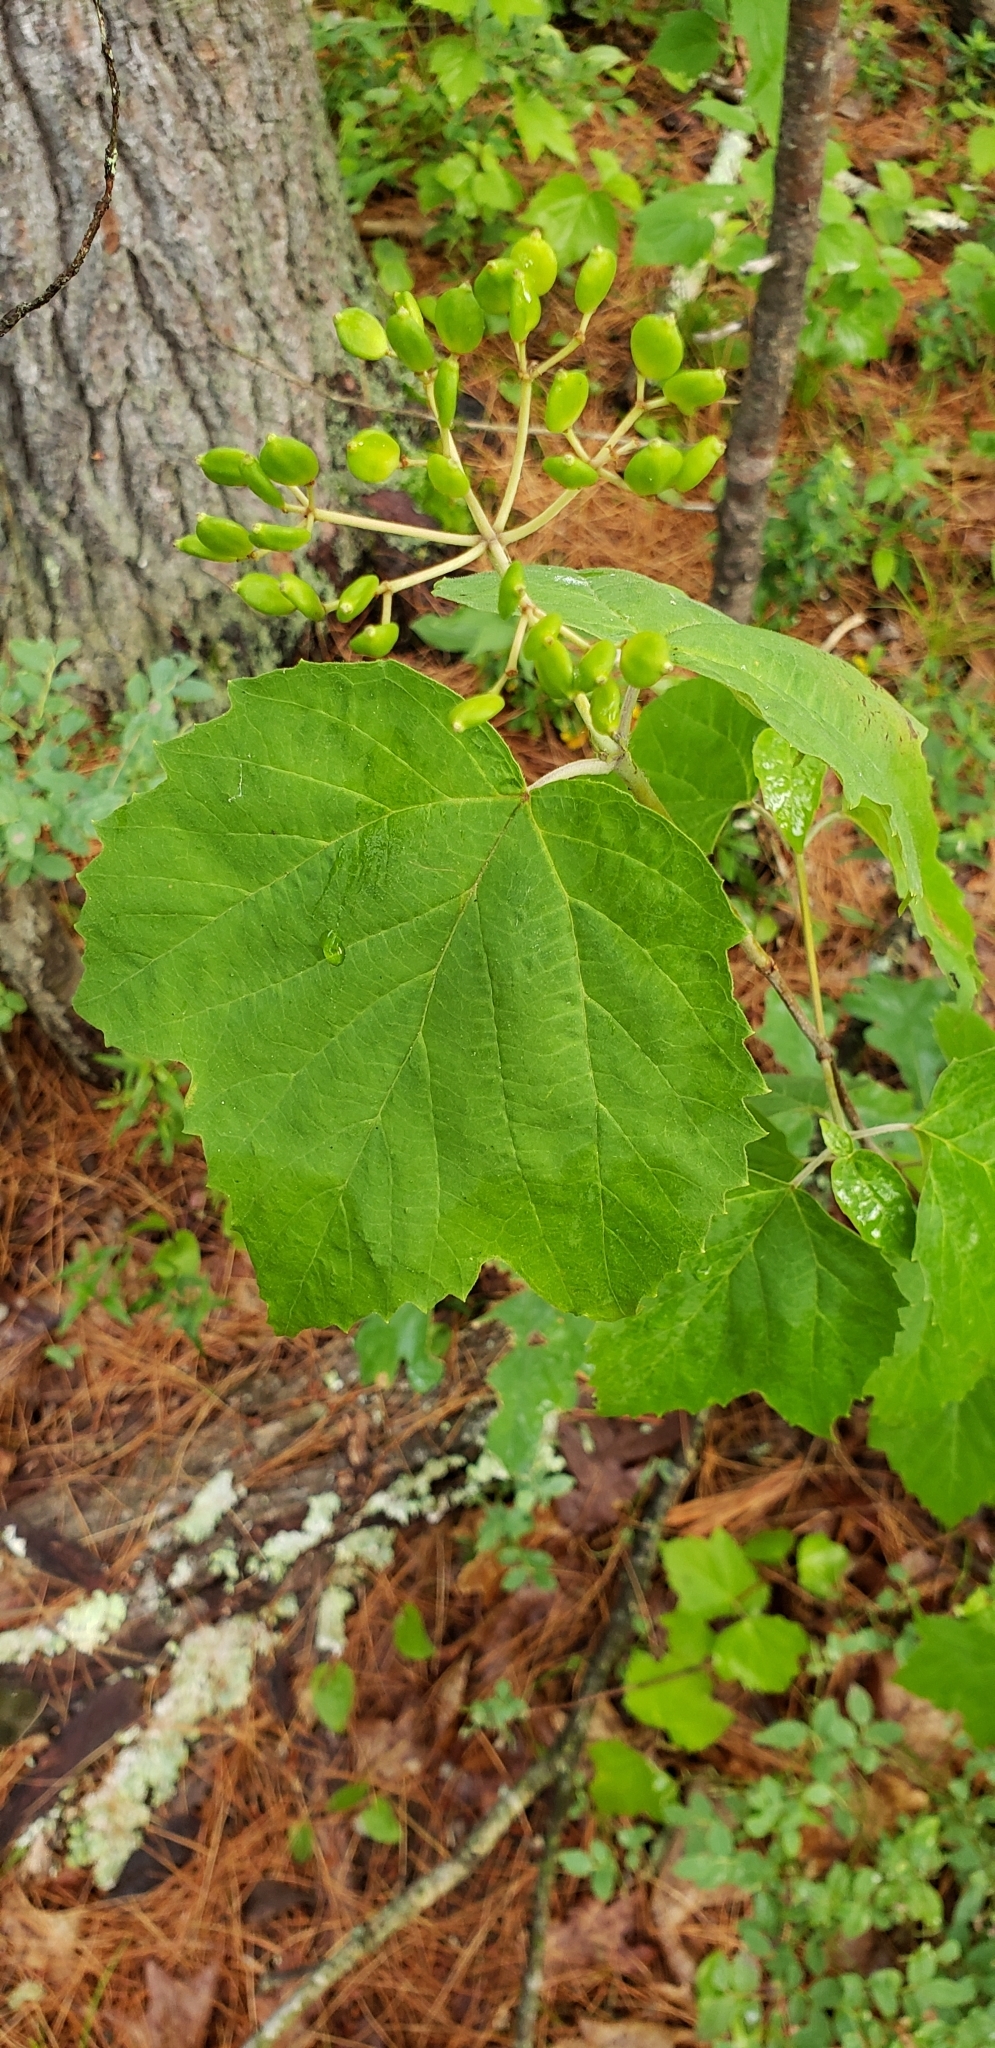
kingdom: Plantae
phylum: Tracheophyta
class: Magnoliopsida
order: Dipsacales
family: Viburnaceae
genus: Viburnum
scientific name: Viburnum acerifolium
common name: Dockmackie
